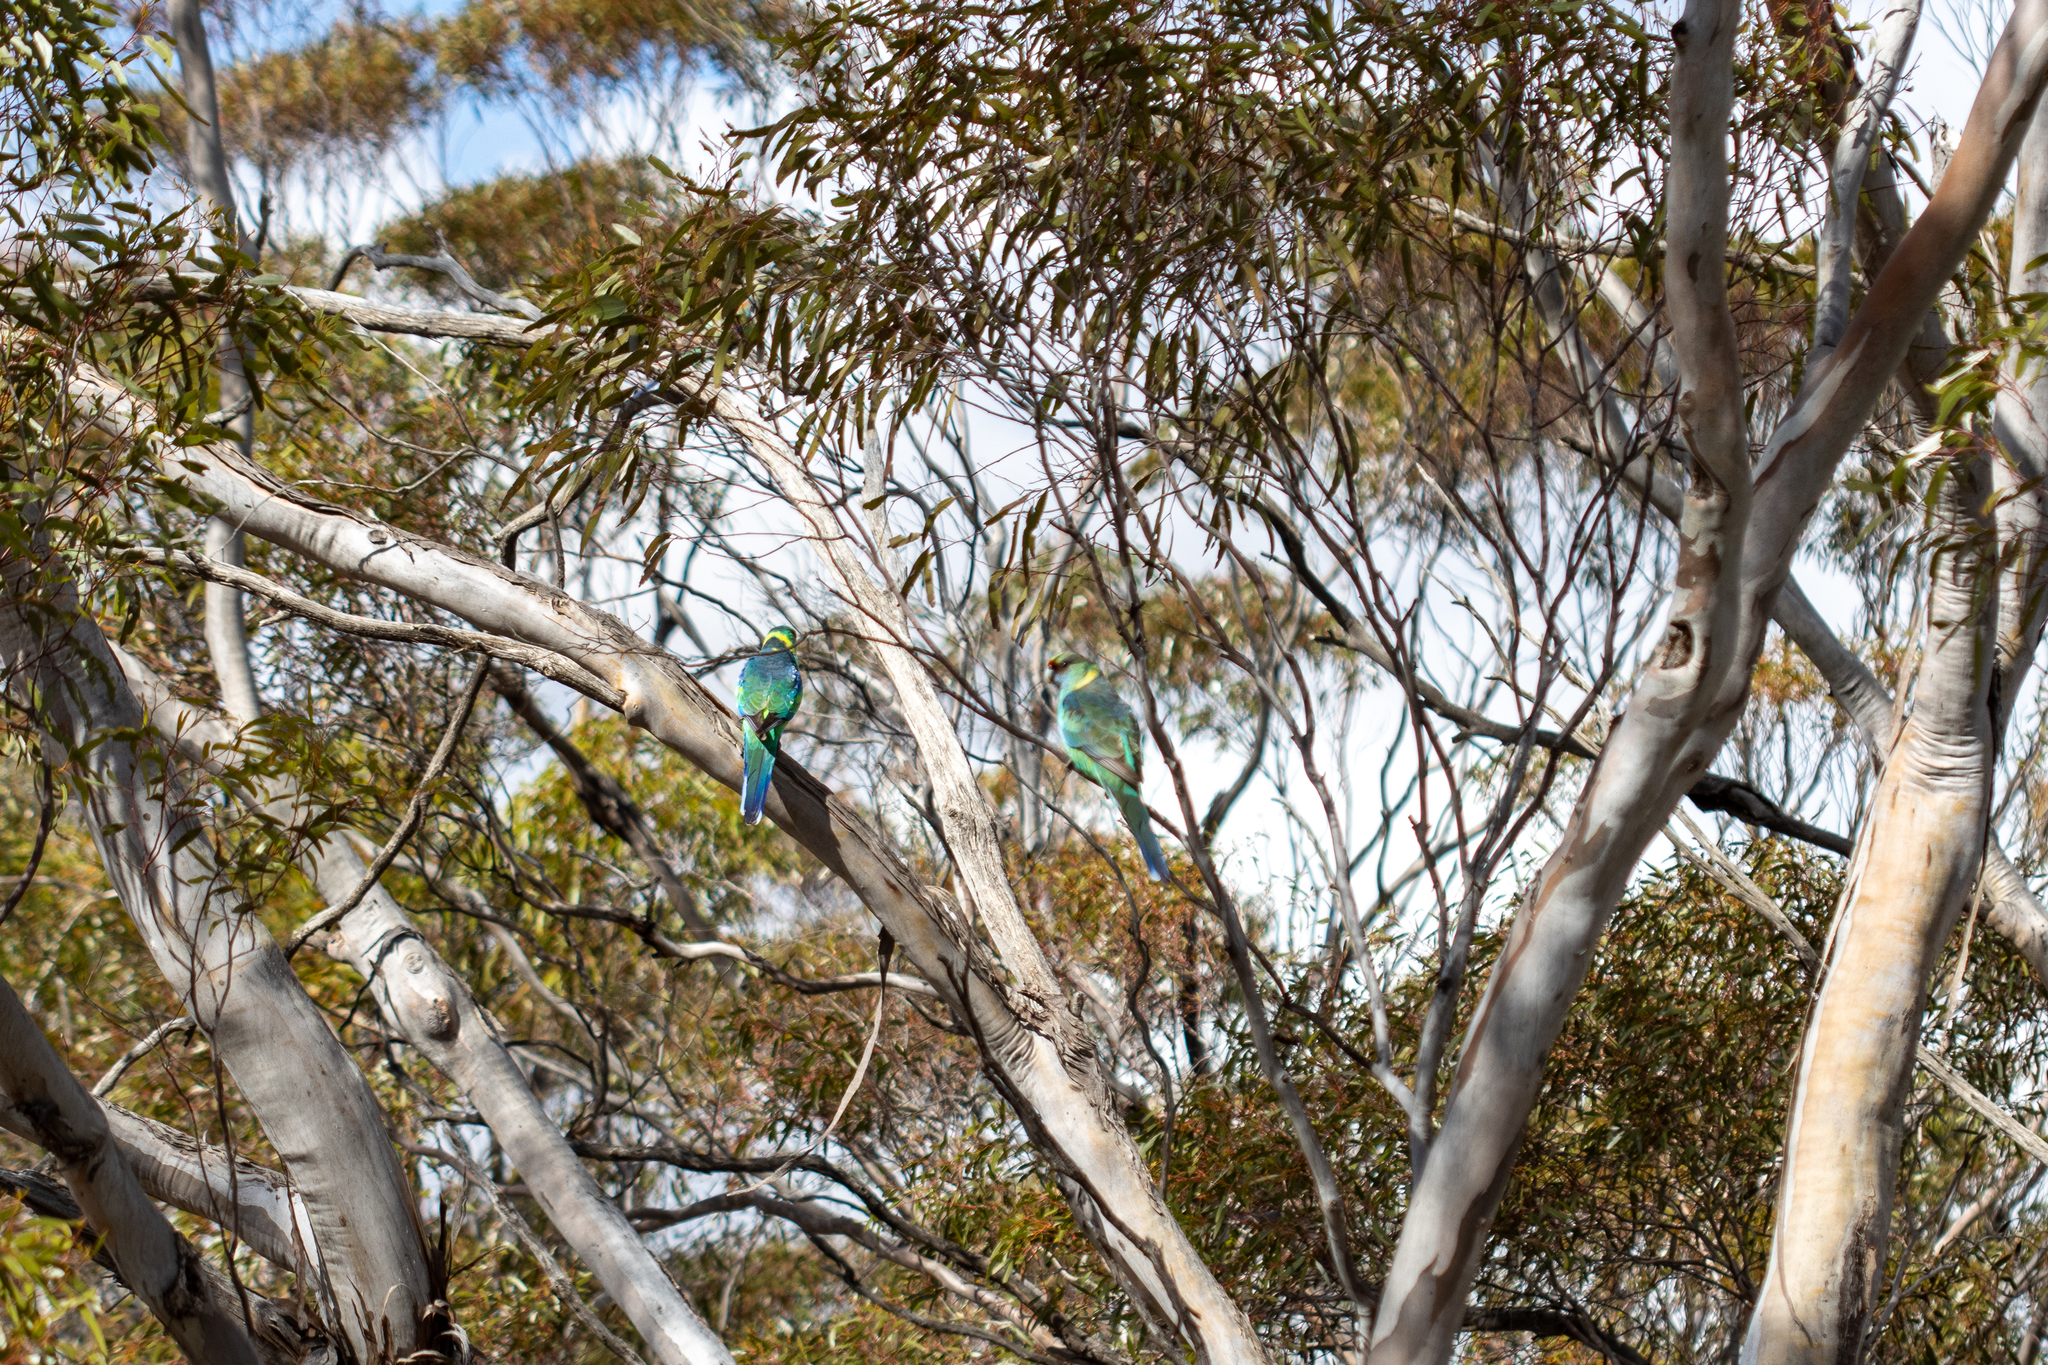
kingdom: Animalia
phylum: Chordata
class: Aves
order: Psittaciformes
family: Psittacidae
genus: Barnardius
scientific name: Barnardius zonarius
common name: Australian ringneck
